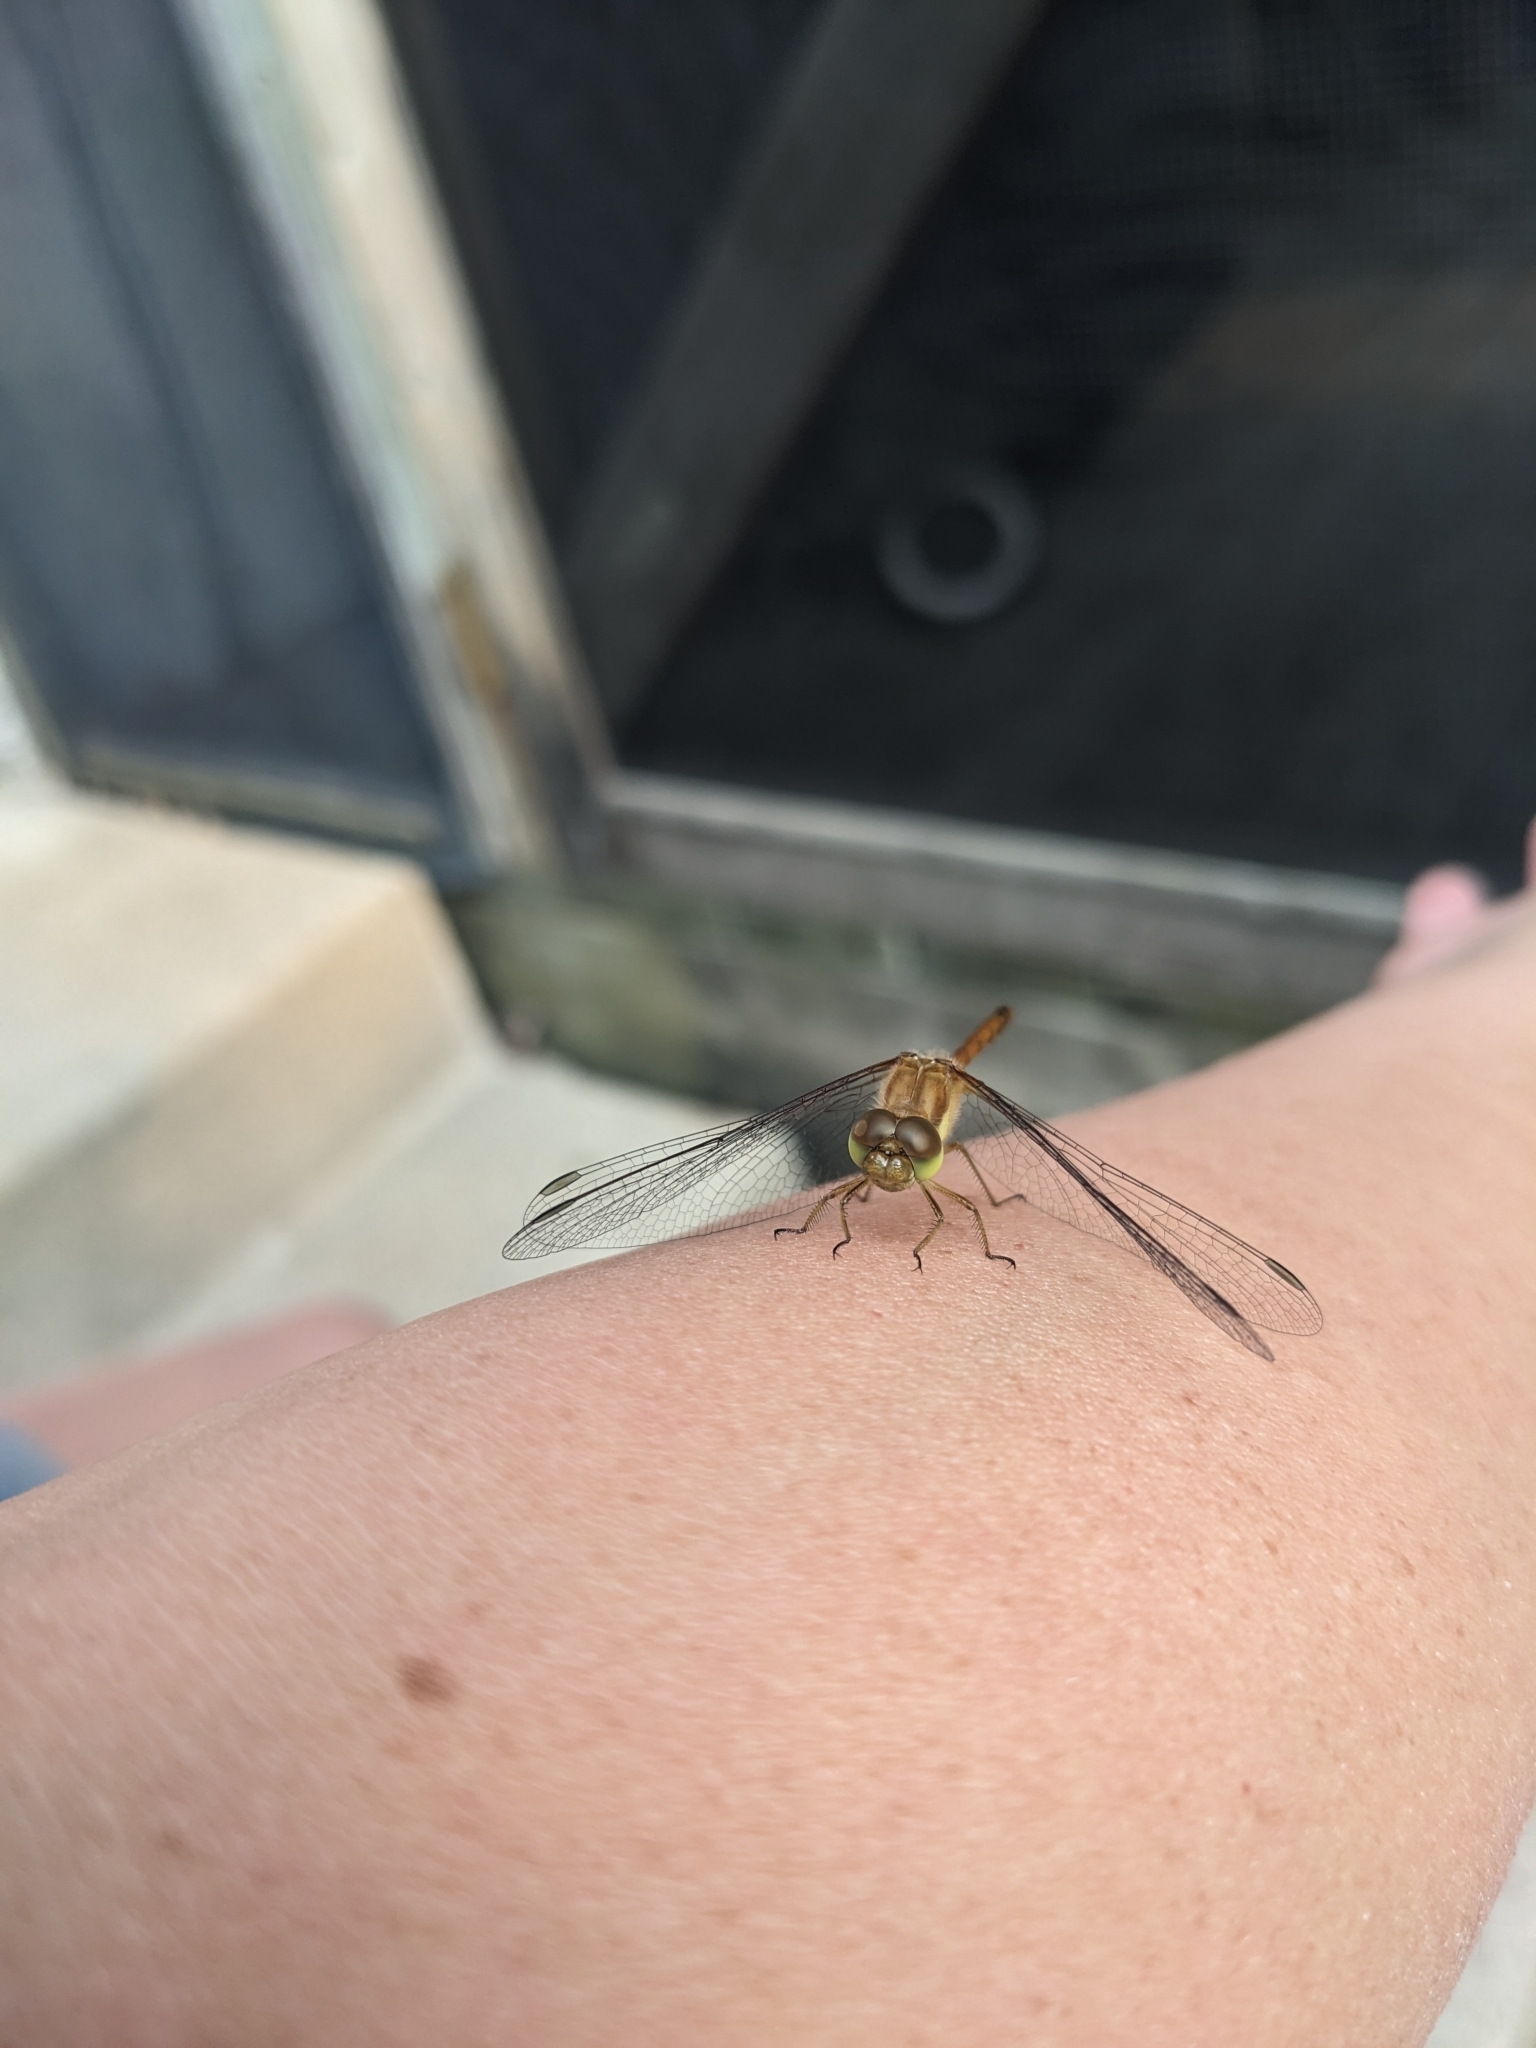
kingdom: Animalia
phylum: Arthropoda
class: Insecta
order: Odonata
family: Libellulidae
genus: Sympetrum
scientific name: Sympetrum vicinum
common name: Autumn meadowhawk
